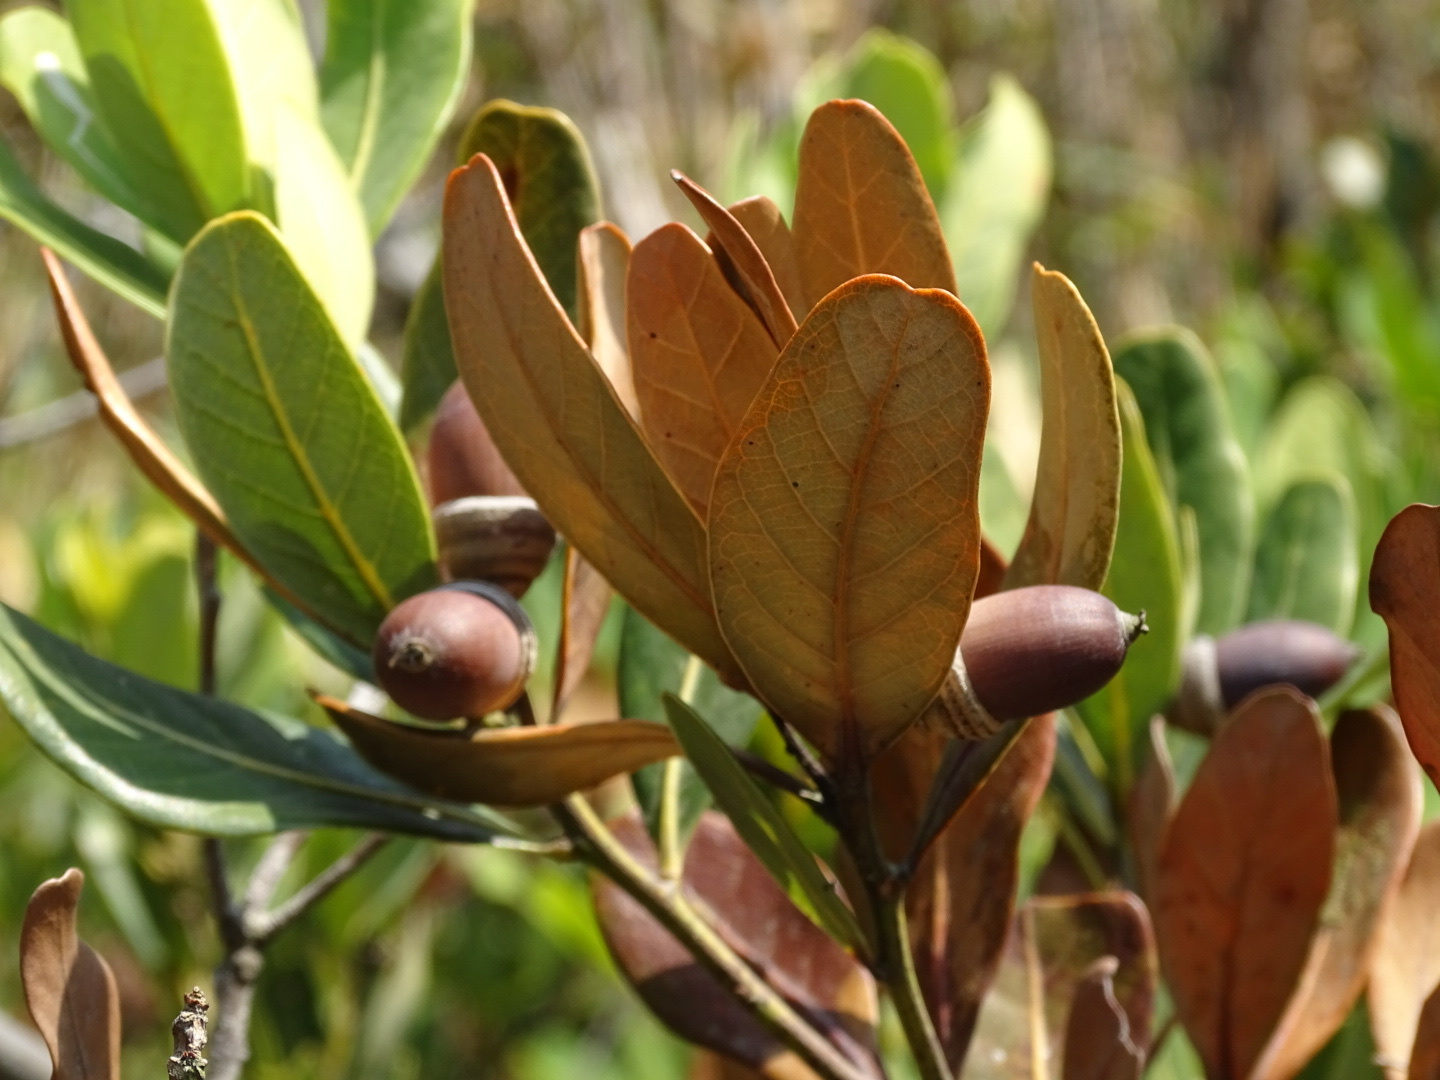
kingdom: Plantae
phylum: Tracheophyta
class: Magnoliopsida
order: Fagales
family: Fagaceae
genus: Quercus
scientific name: Quercus litseoides
